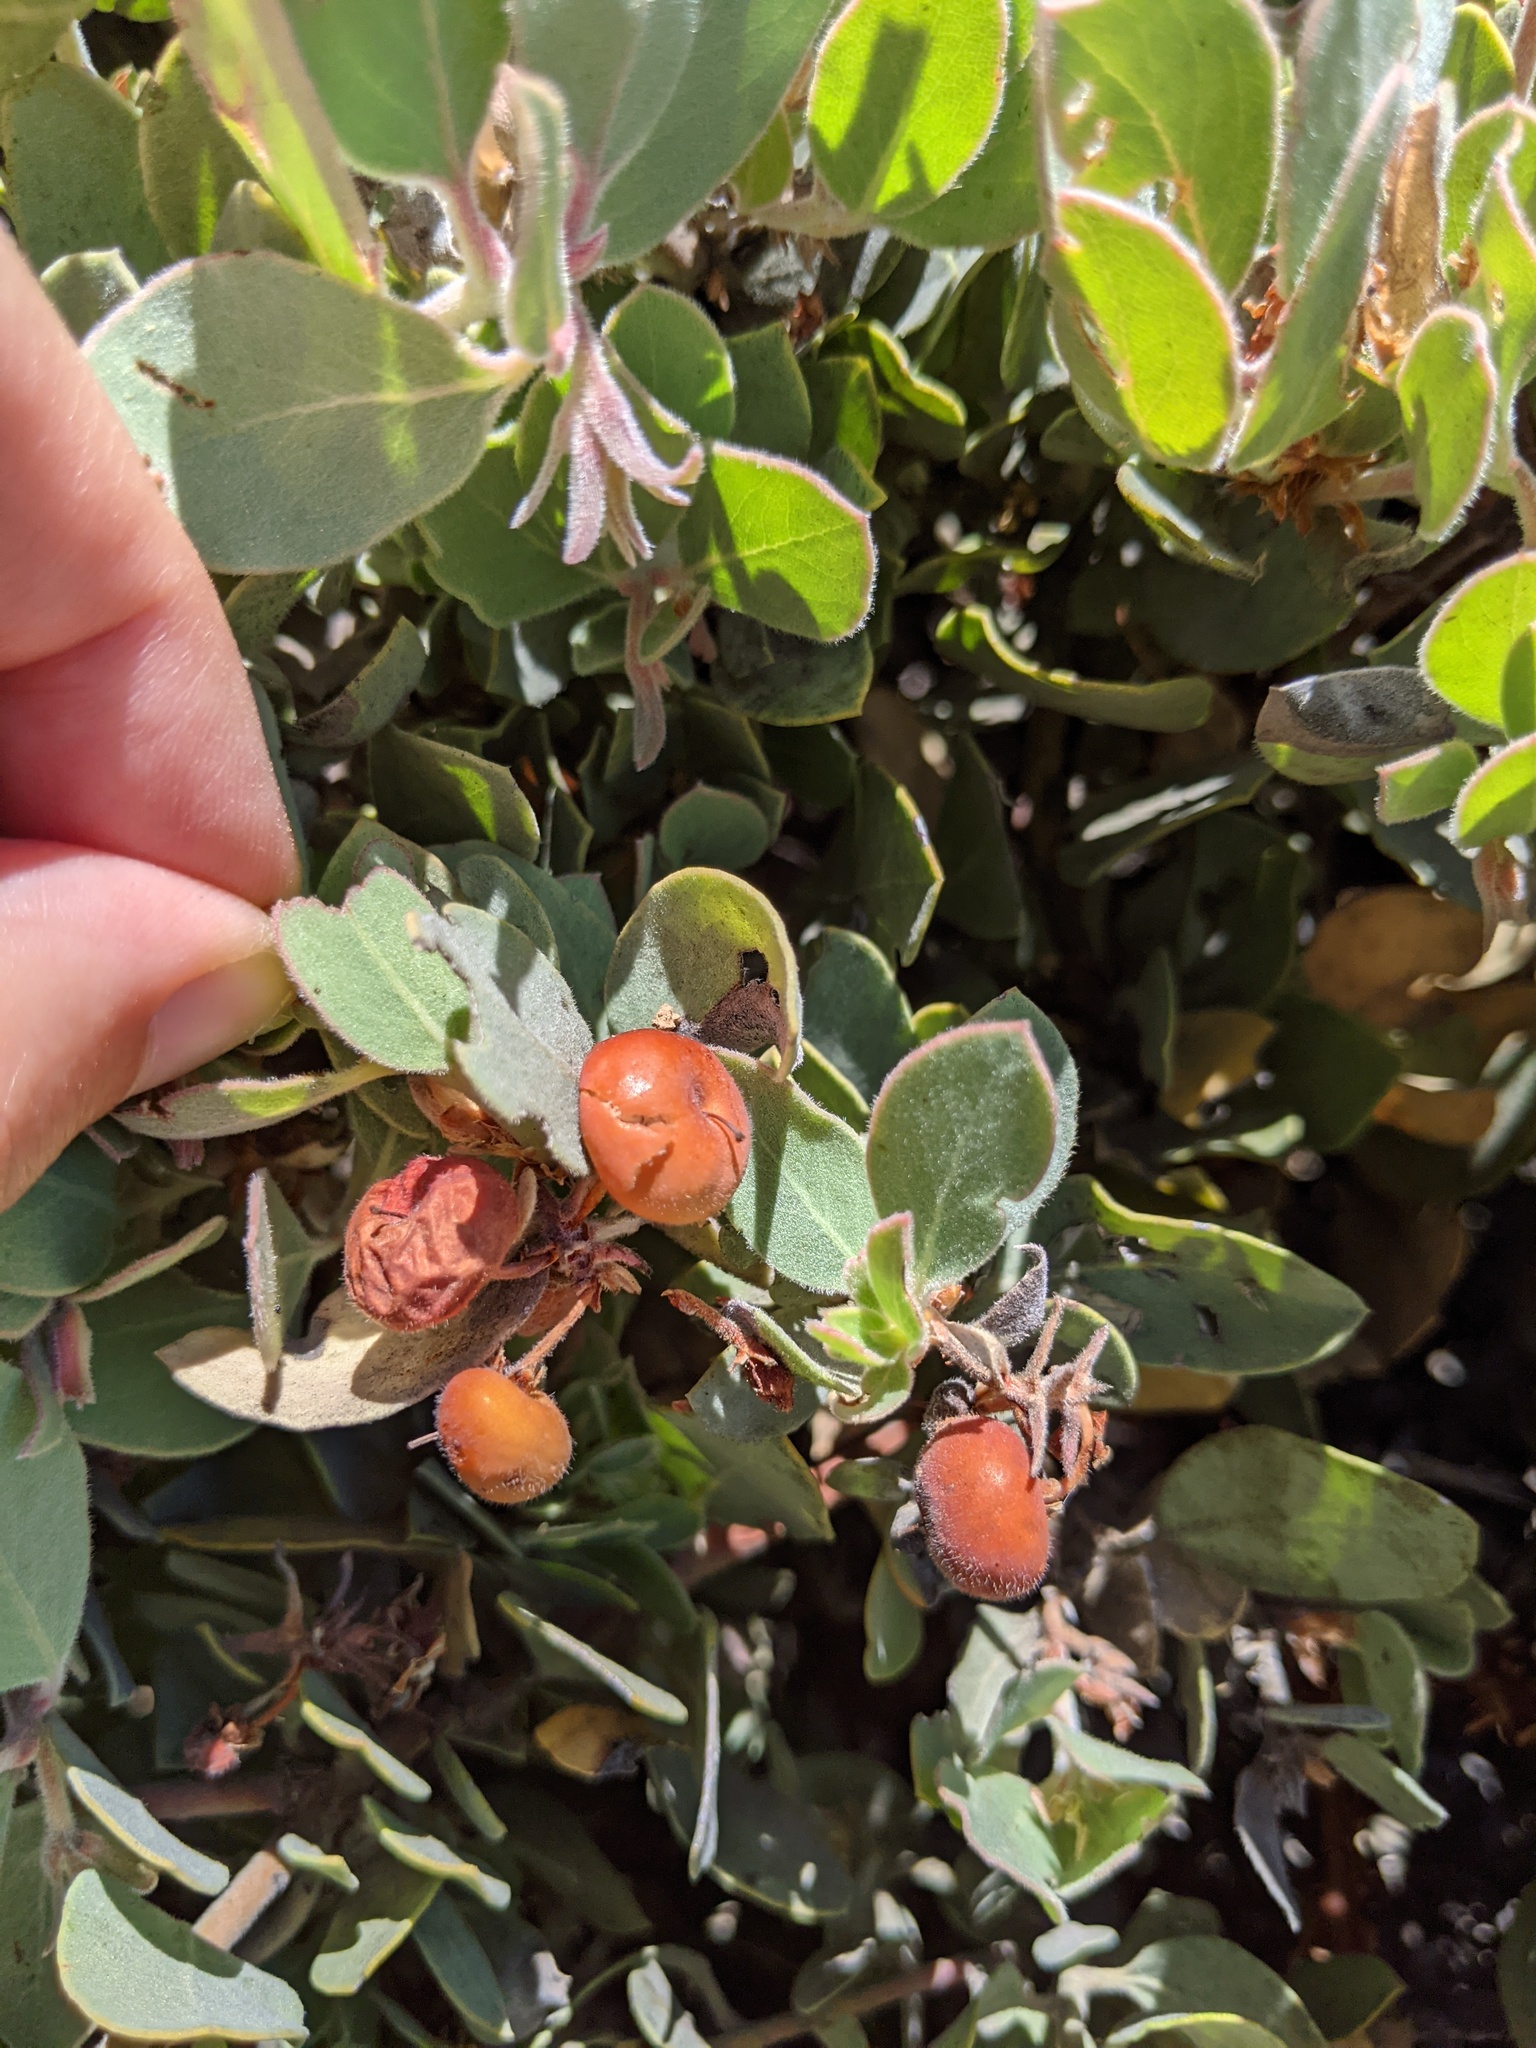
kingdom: Plantae
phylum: Tracheophyta
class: Magnoliopsida
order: Ericales
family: Ericaceae
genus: Arctostaphylos
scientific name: Arctostaphylos canescens
